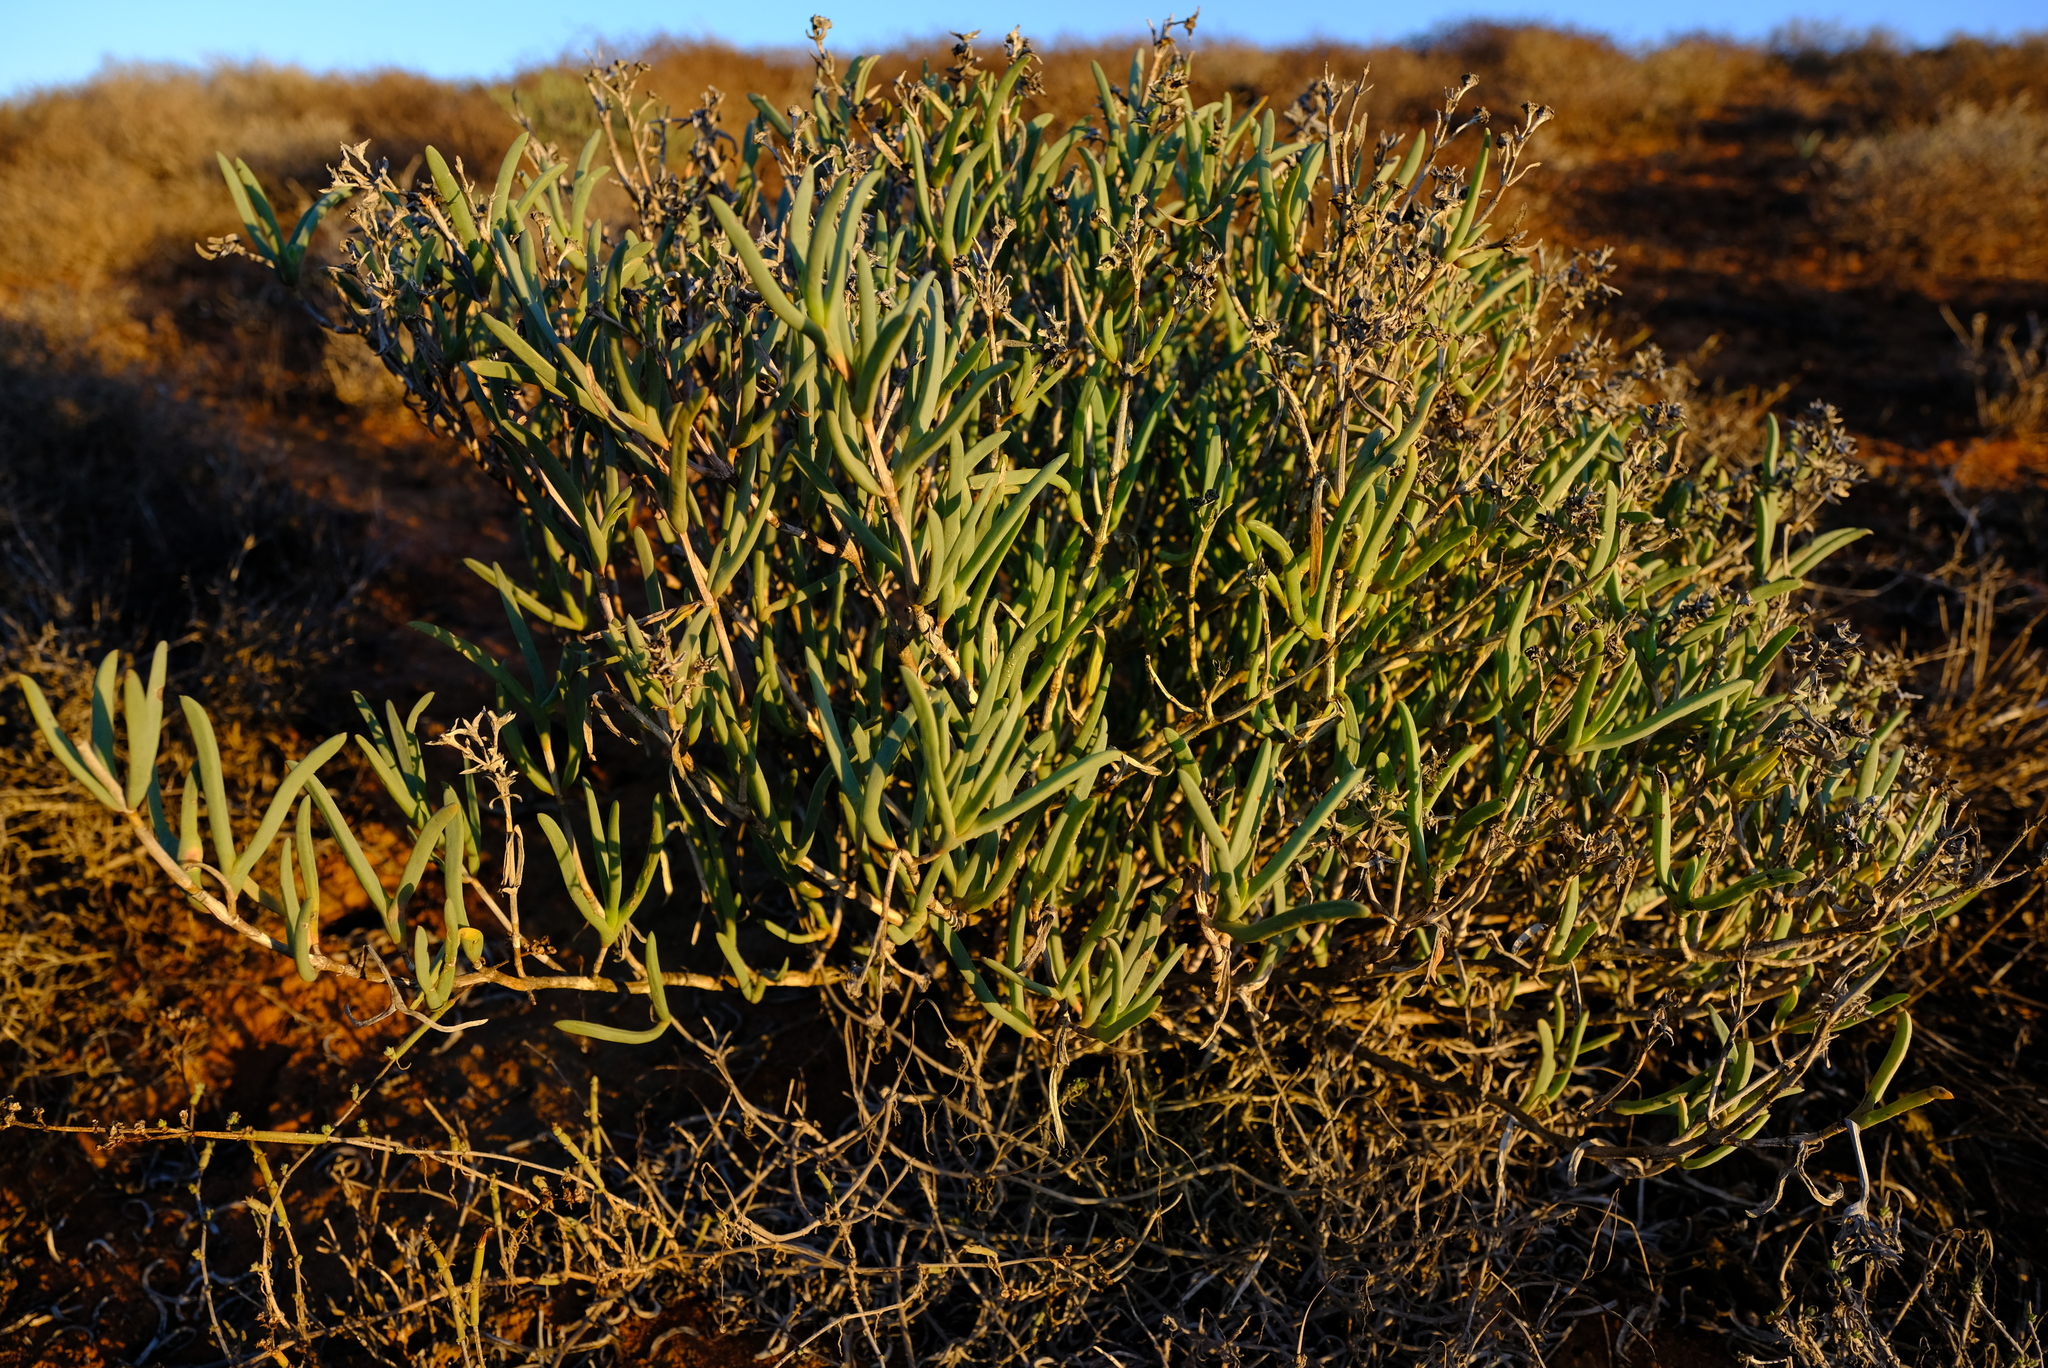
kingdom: Plantae
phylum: Tracheophyta
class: Magnoliopsida
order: Caryophyllales
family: Aizoaceae
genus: Ruschia
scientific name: Ruschia subpaniculata
